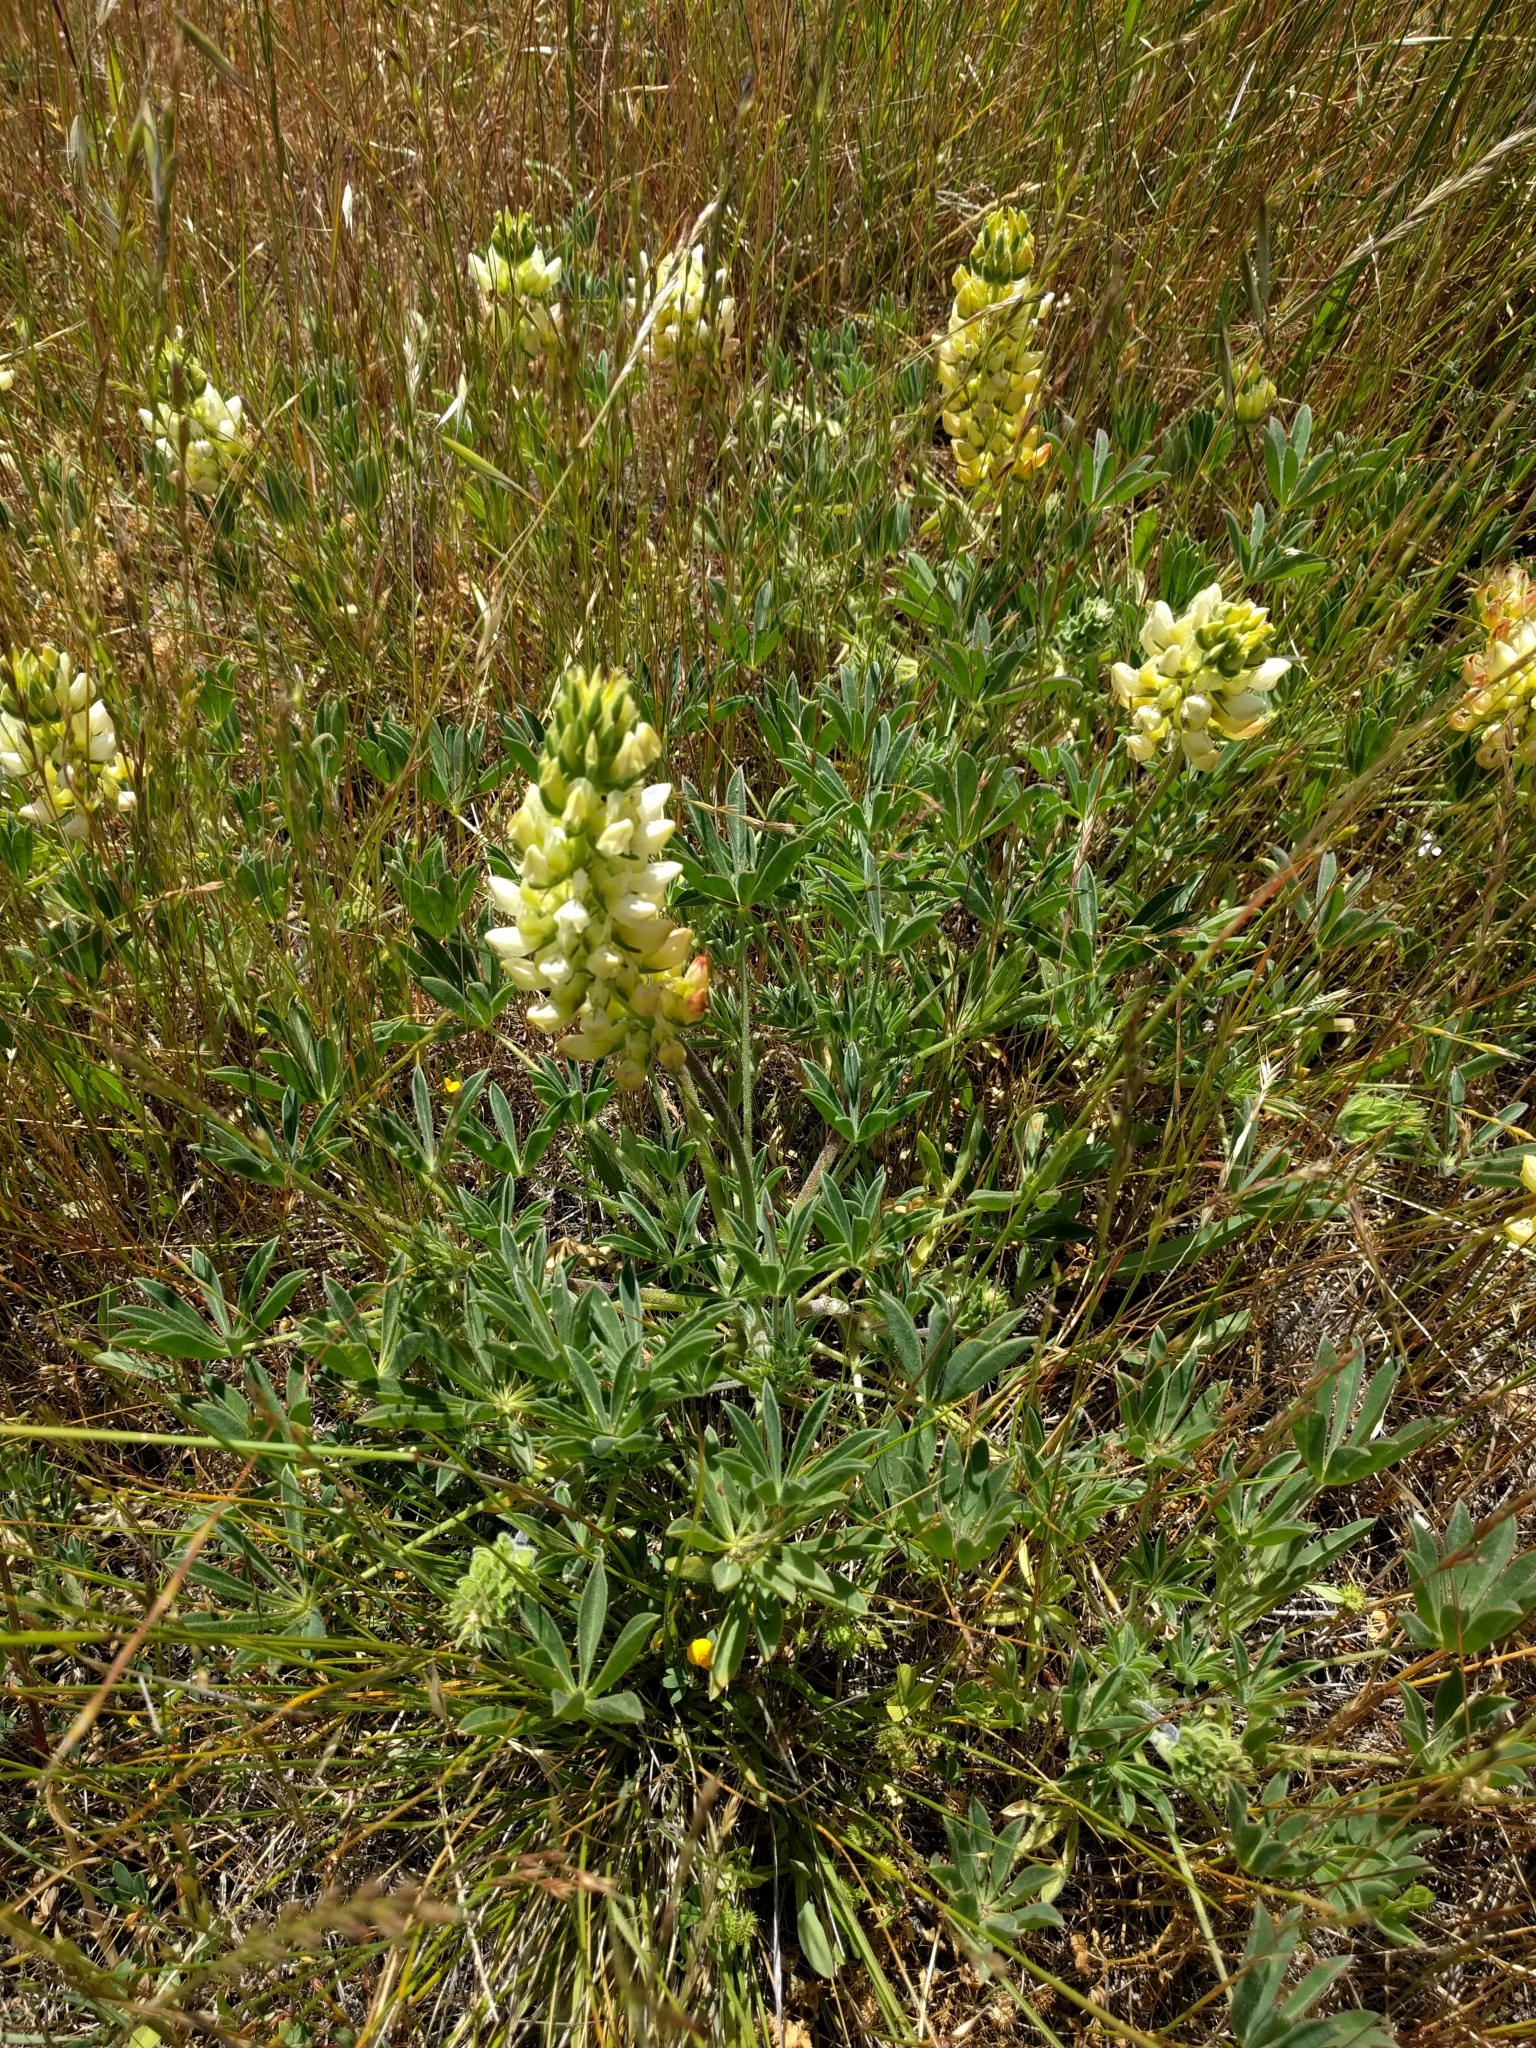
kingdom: Plantae
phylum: Tracheophyta
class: Magnoliopsida
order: Fabales
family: Fabaceae
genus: Lupinus
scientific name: Lupinus microcarpus
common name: Chick lupine
